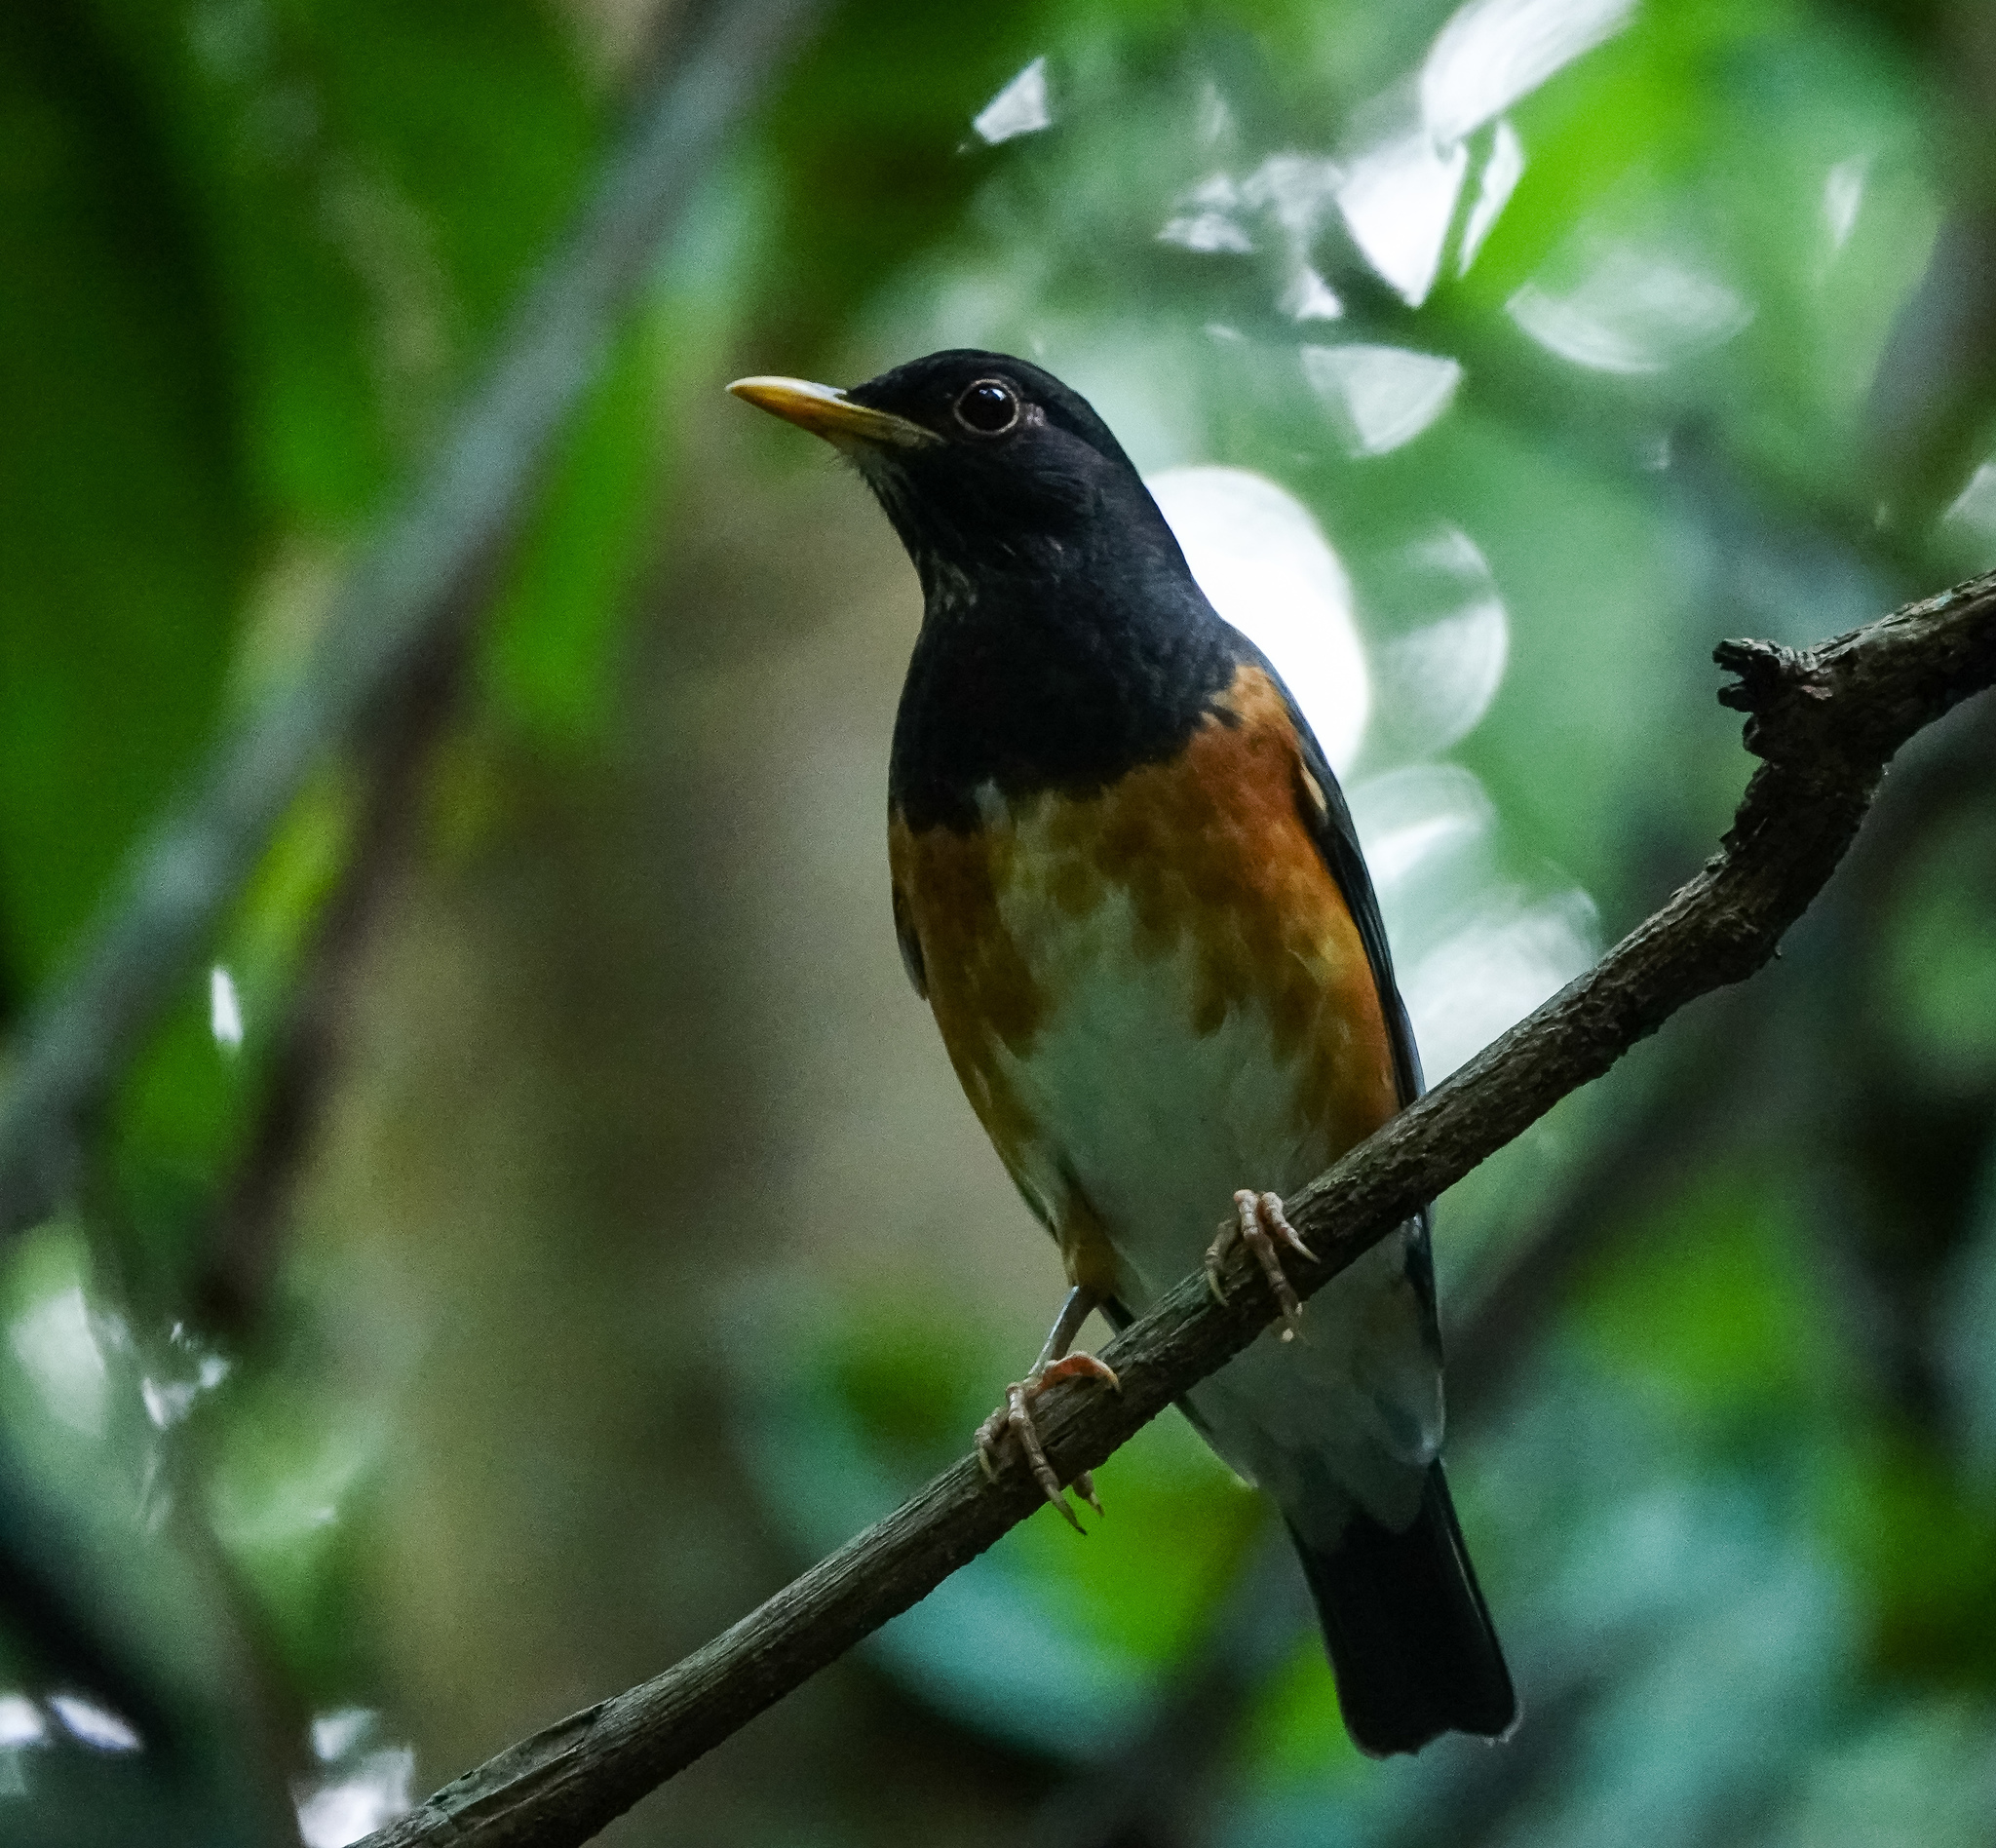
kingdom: Animalia
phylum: Chordata
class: Aves
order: Passeriformes
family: Turdidae
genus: Turdus
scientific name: Turdus dissimilis
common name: Black-breasted thrush
